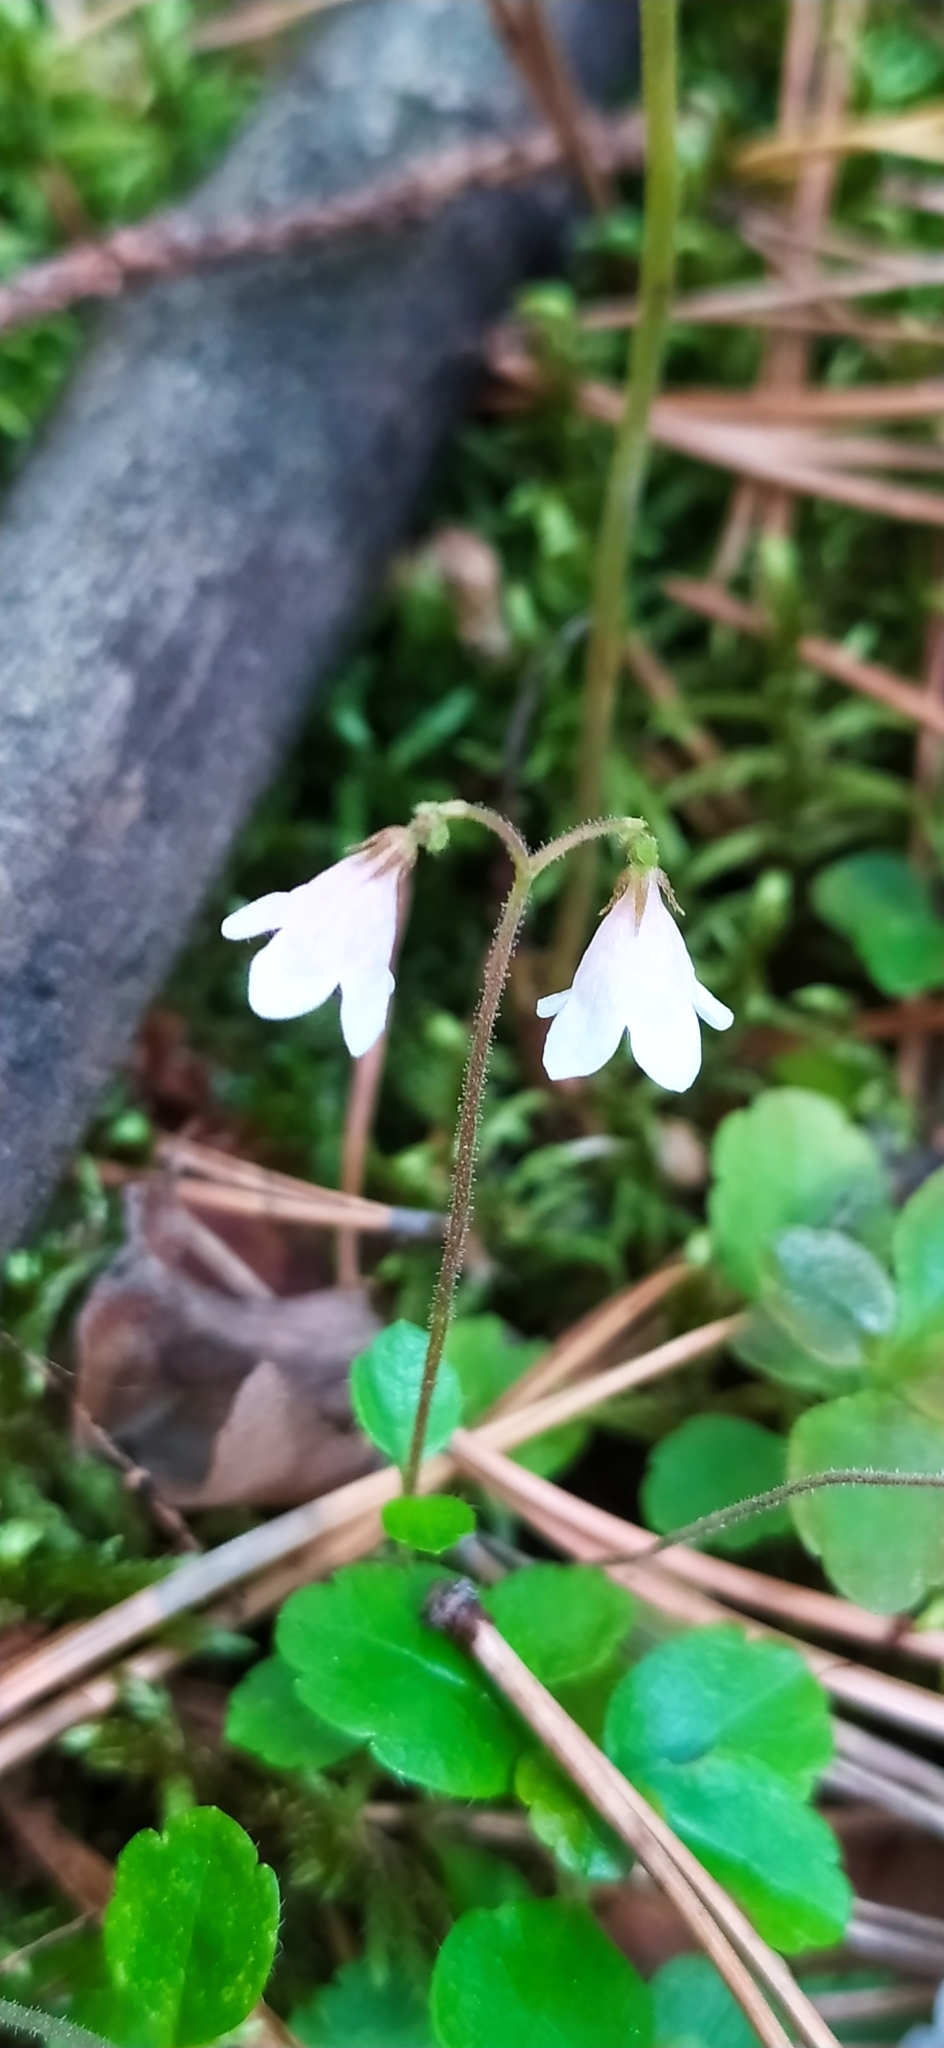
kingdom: Plantae
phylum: Tracheophyta
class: Magnoliopsida
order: Dipsacales
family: Caprifoliaceae
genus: Linnaea
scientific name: Linnaea borealis
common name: Twinflower
